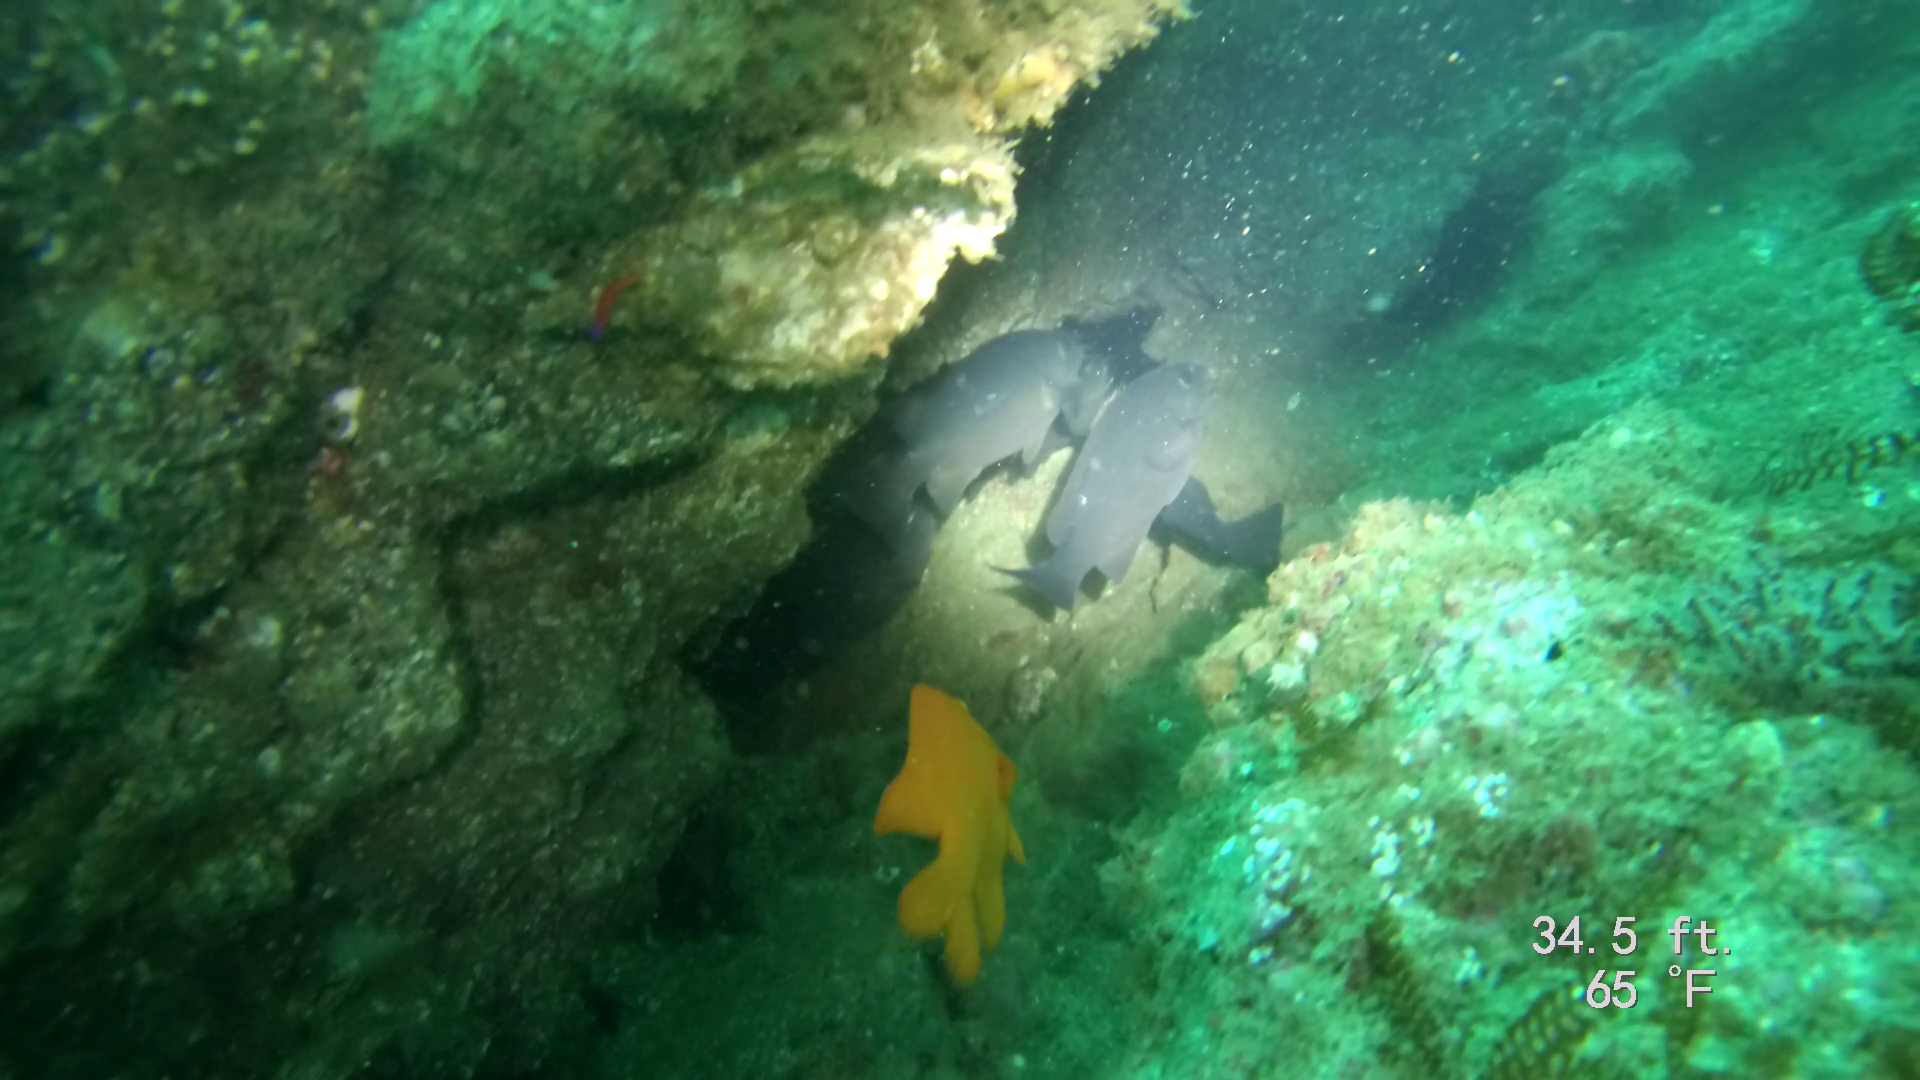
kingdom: Animalia
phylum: Chordata
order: Perciformes
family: Kyphosidae
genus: Girella
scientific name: Girella nigricans
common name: Opaleye
